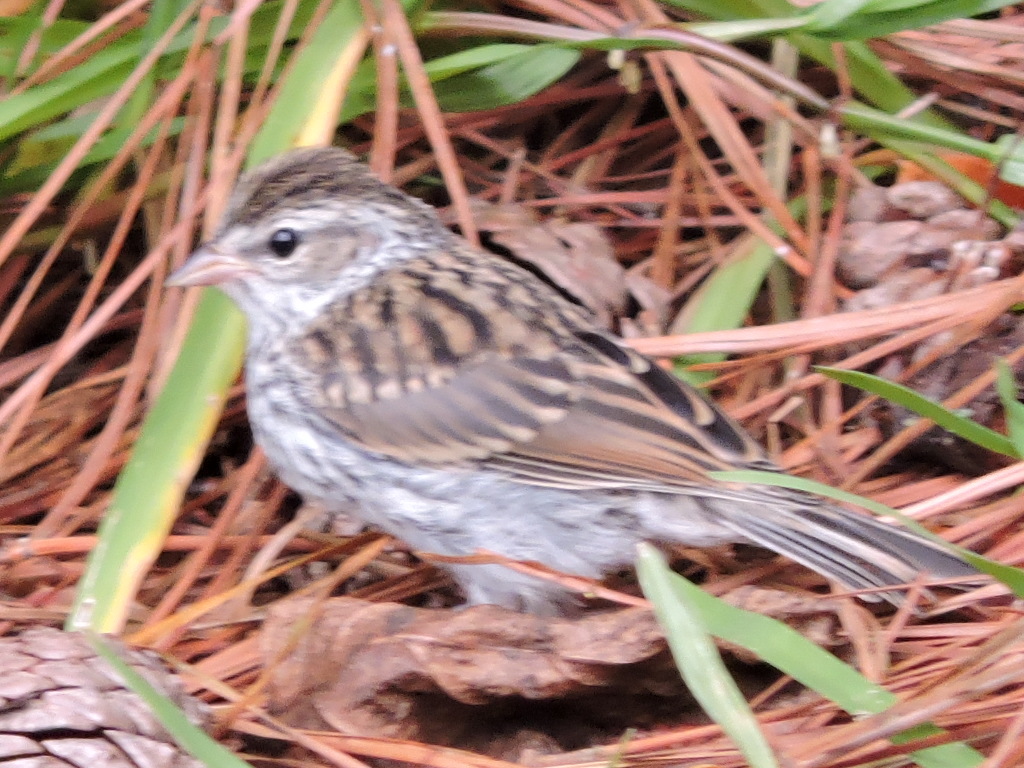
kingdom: Animalia
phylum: Chordata
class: Aves
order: Passeriformes
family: Passerellidae
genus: Spizella
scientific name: Spizella passerina
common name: Chipping sparrow
